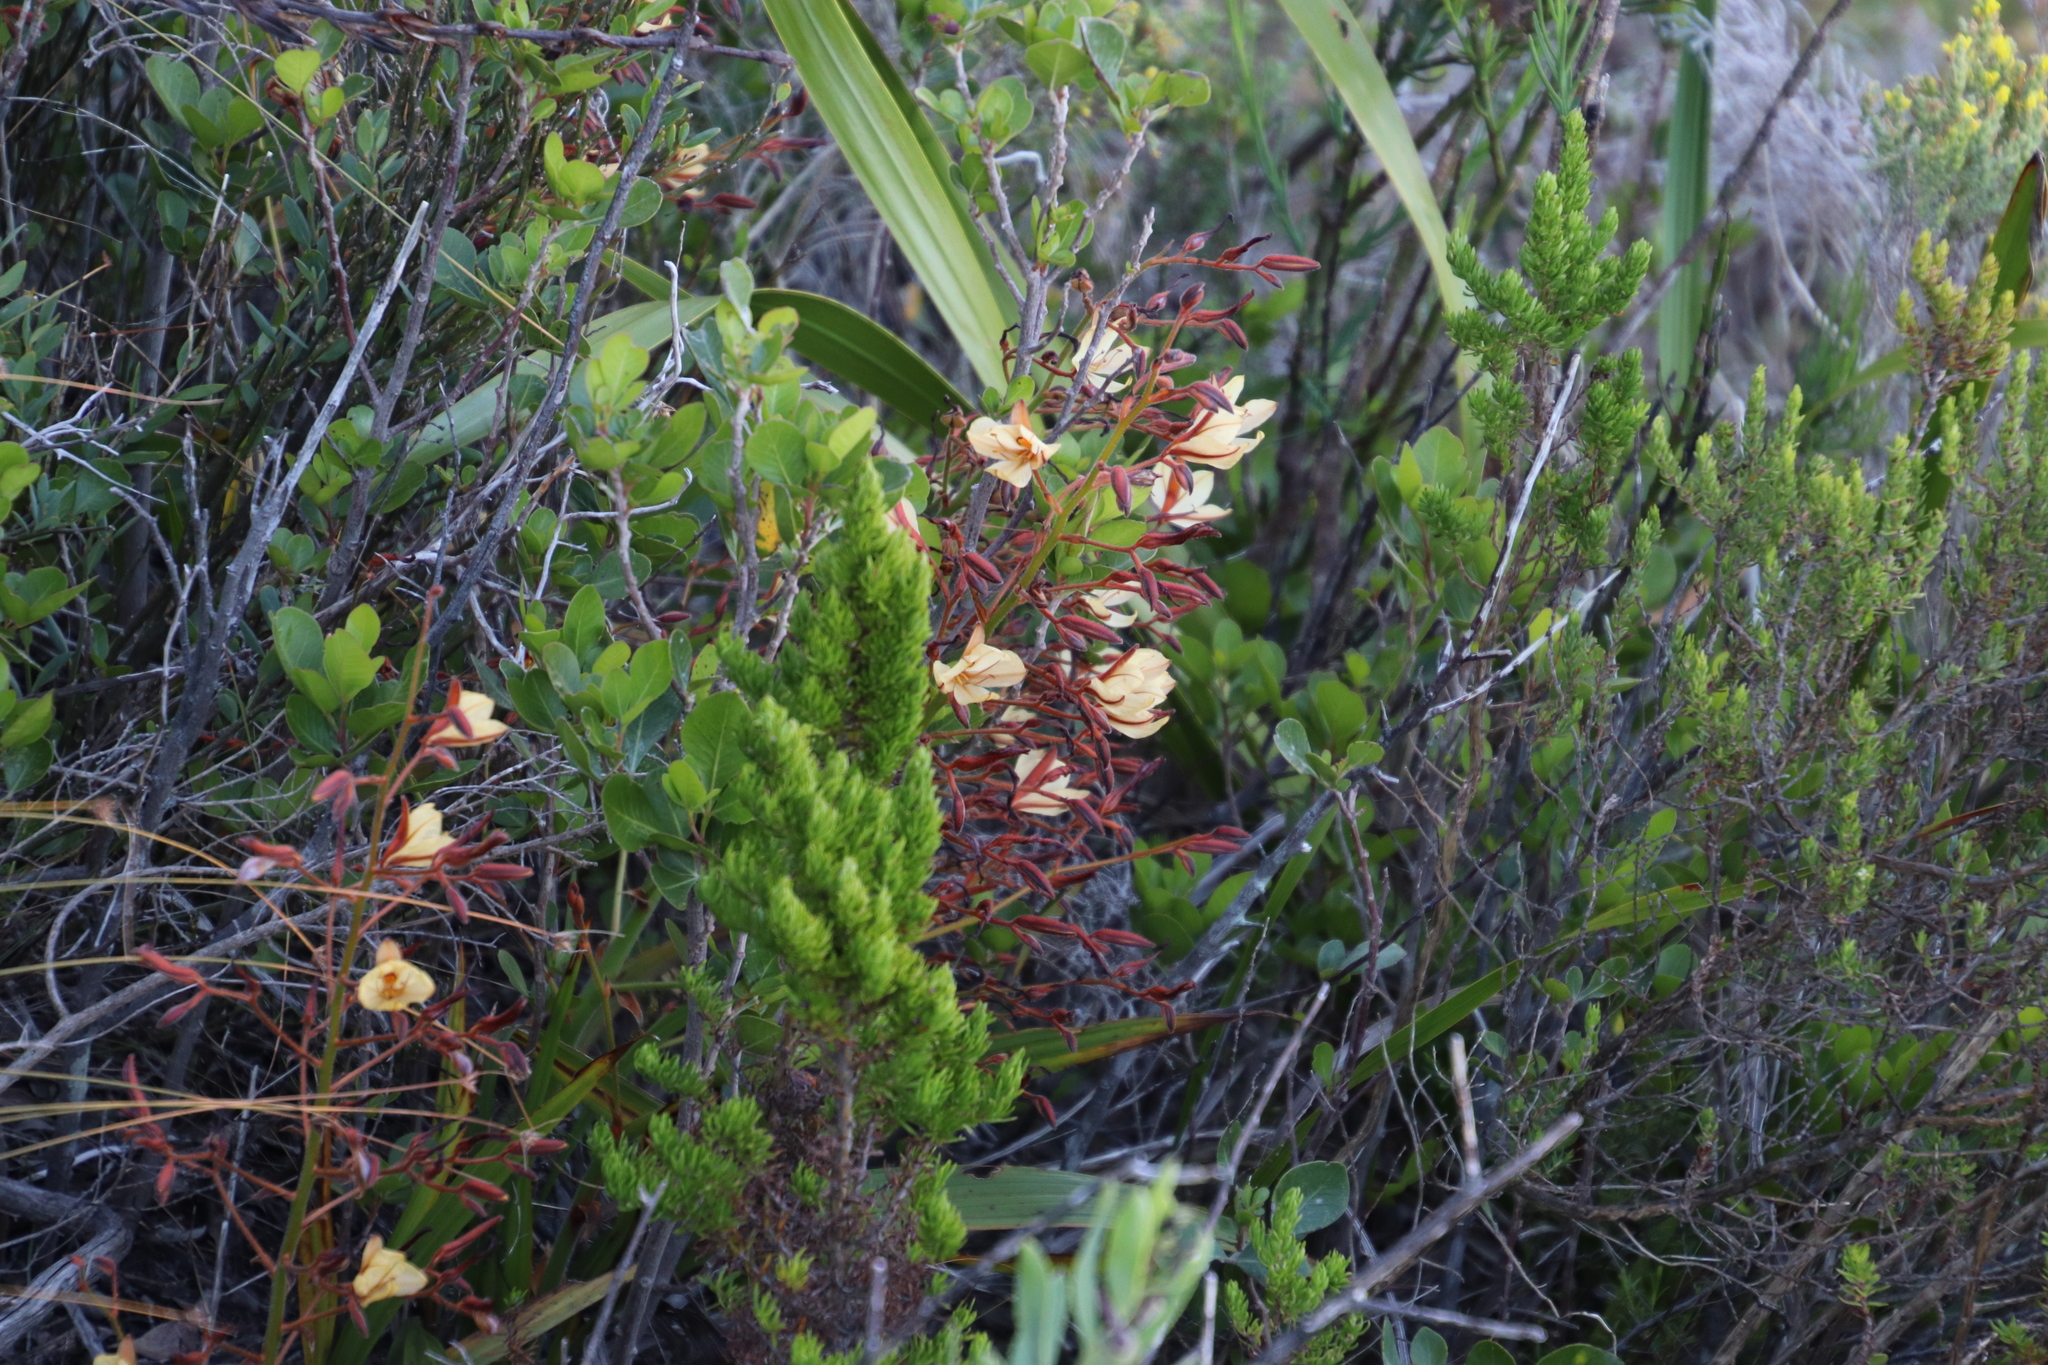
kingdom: Plantae
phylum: Tracheophyta
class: Liliopsida
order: Commelinales
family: Haemodoraceae
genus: Wachendorfia
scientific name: Wachendorfia paniculata
